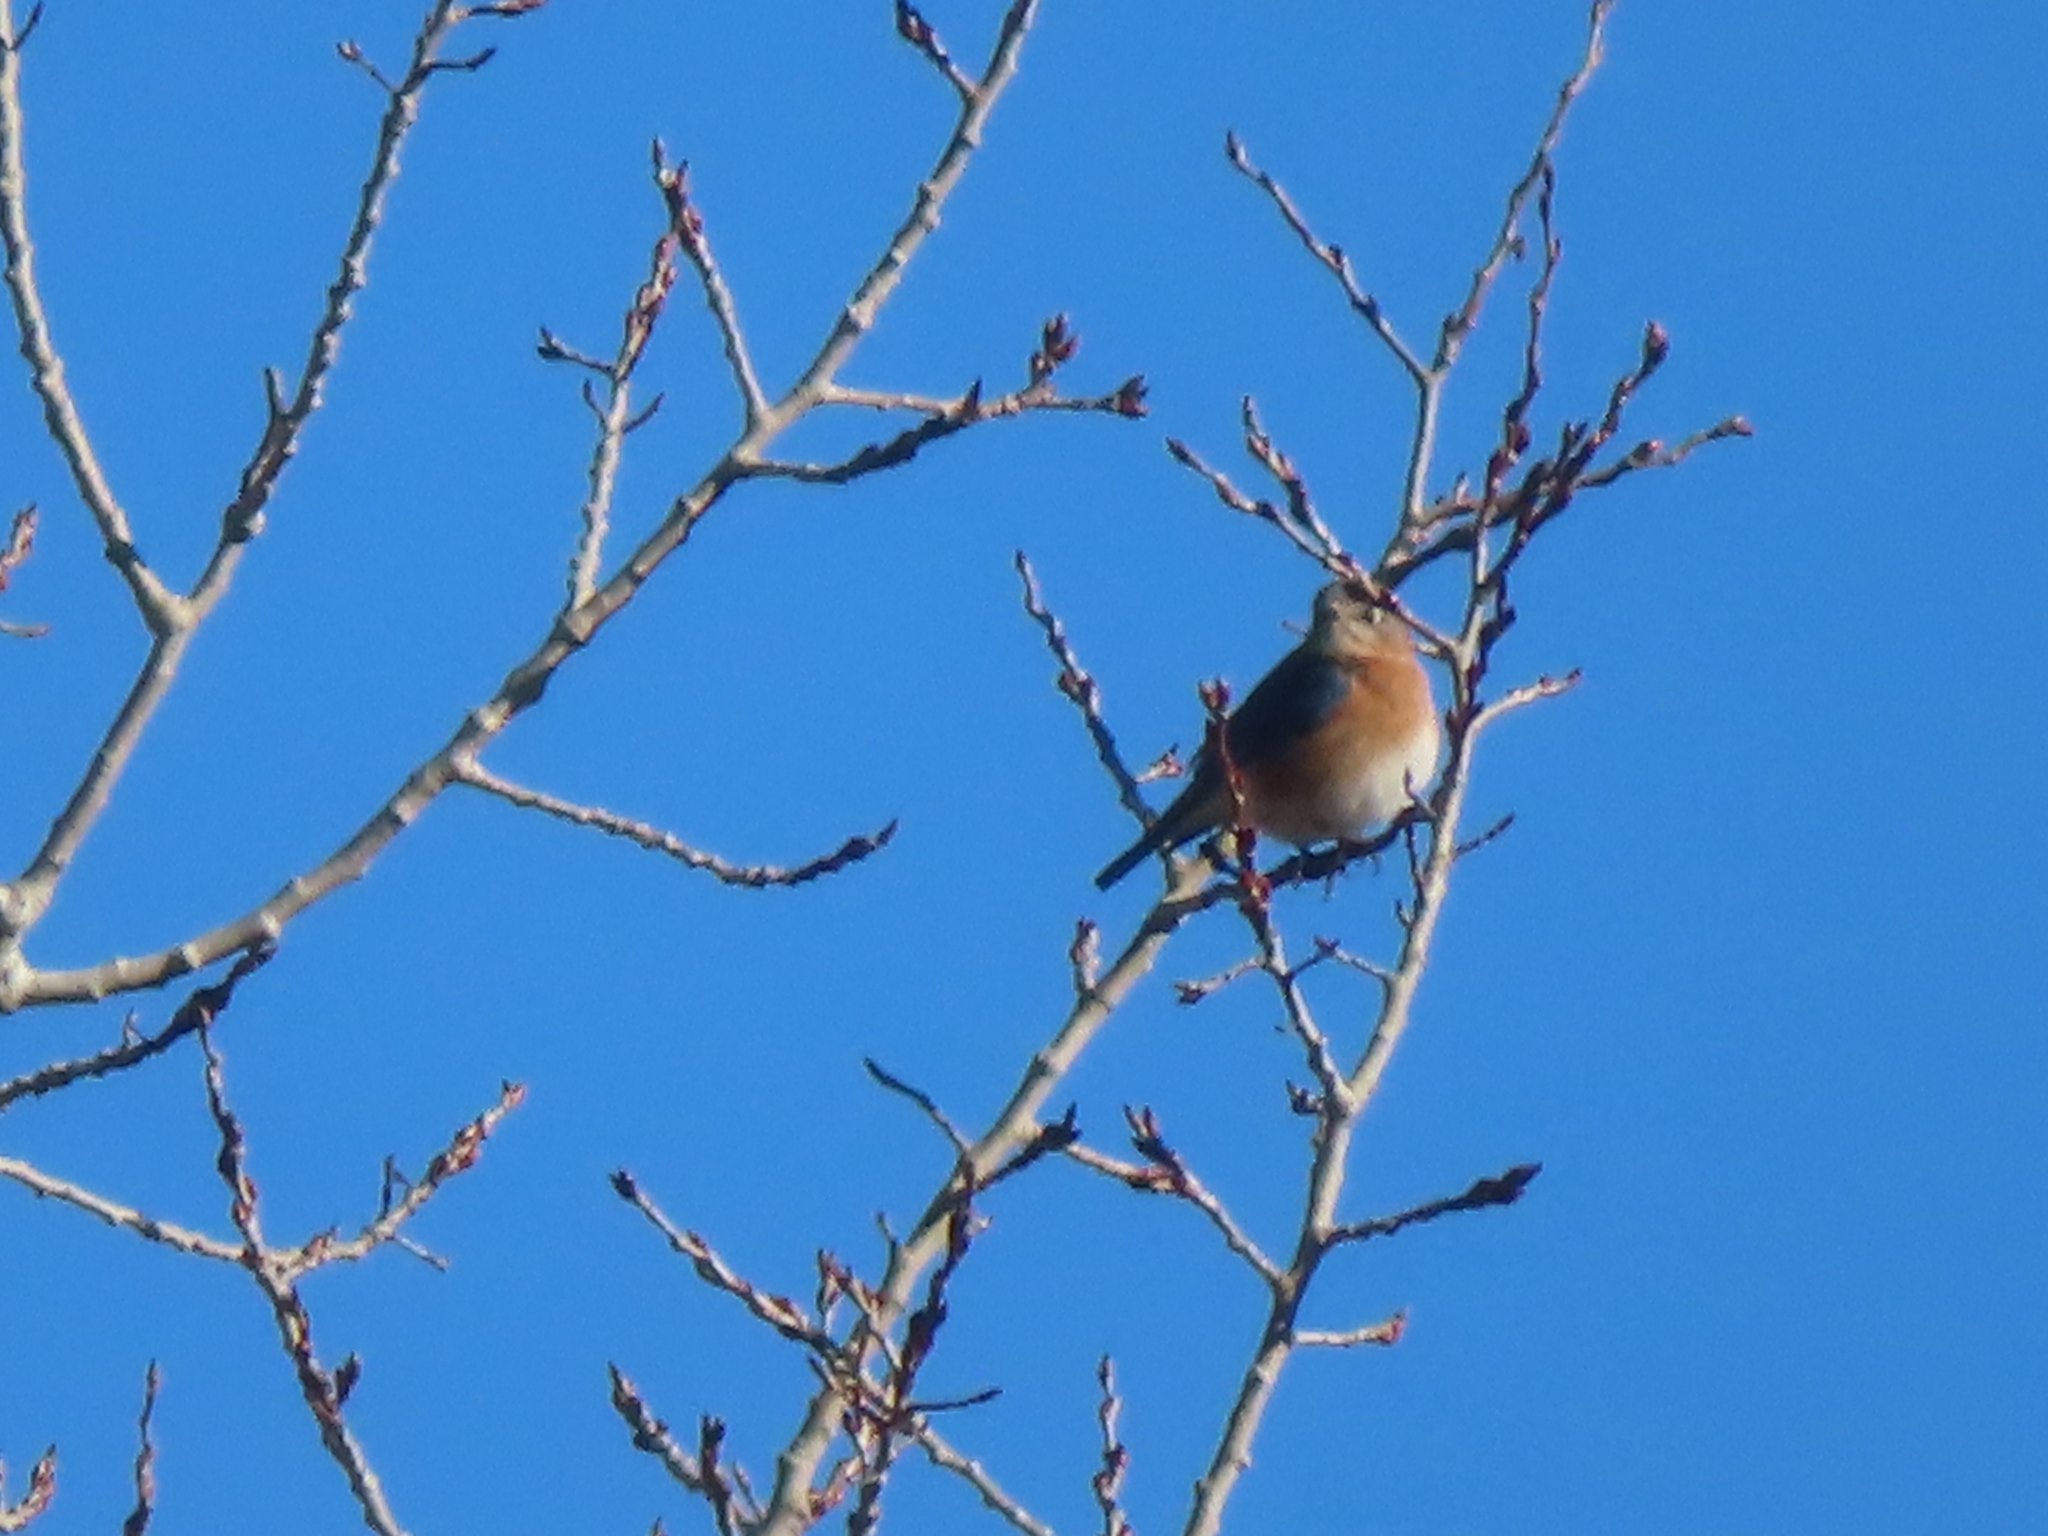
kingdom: Animalia
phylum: Chordata
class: Aves
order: Passeriformes
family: Turdidae
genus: Sialia
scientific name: Sialia sialis
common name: Eastern bluebird
